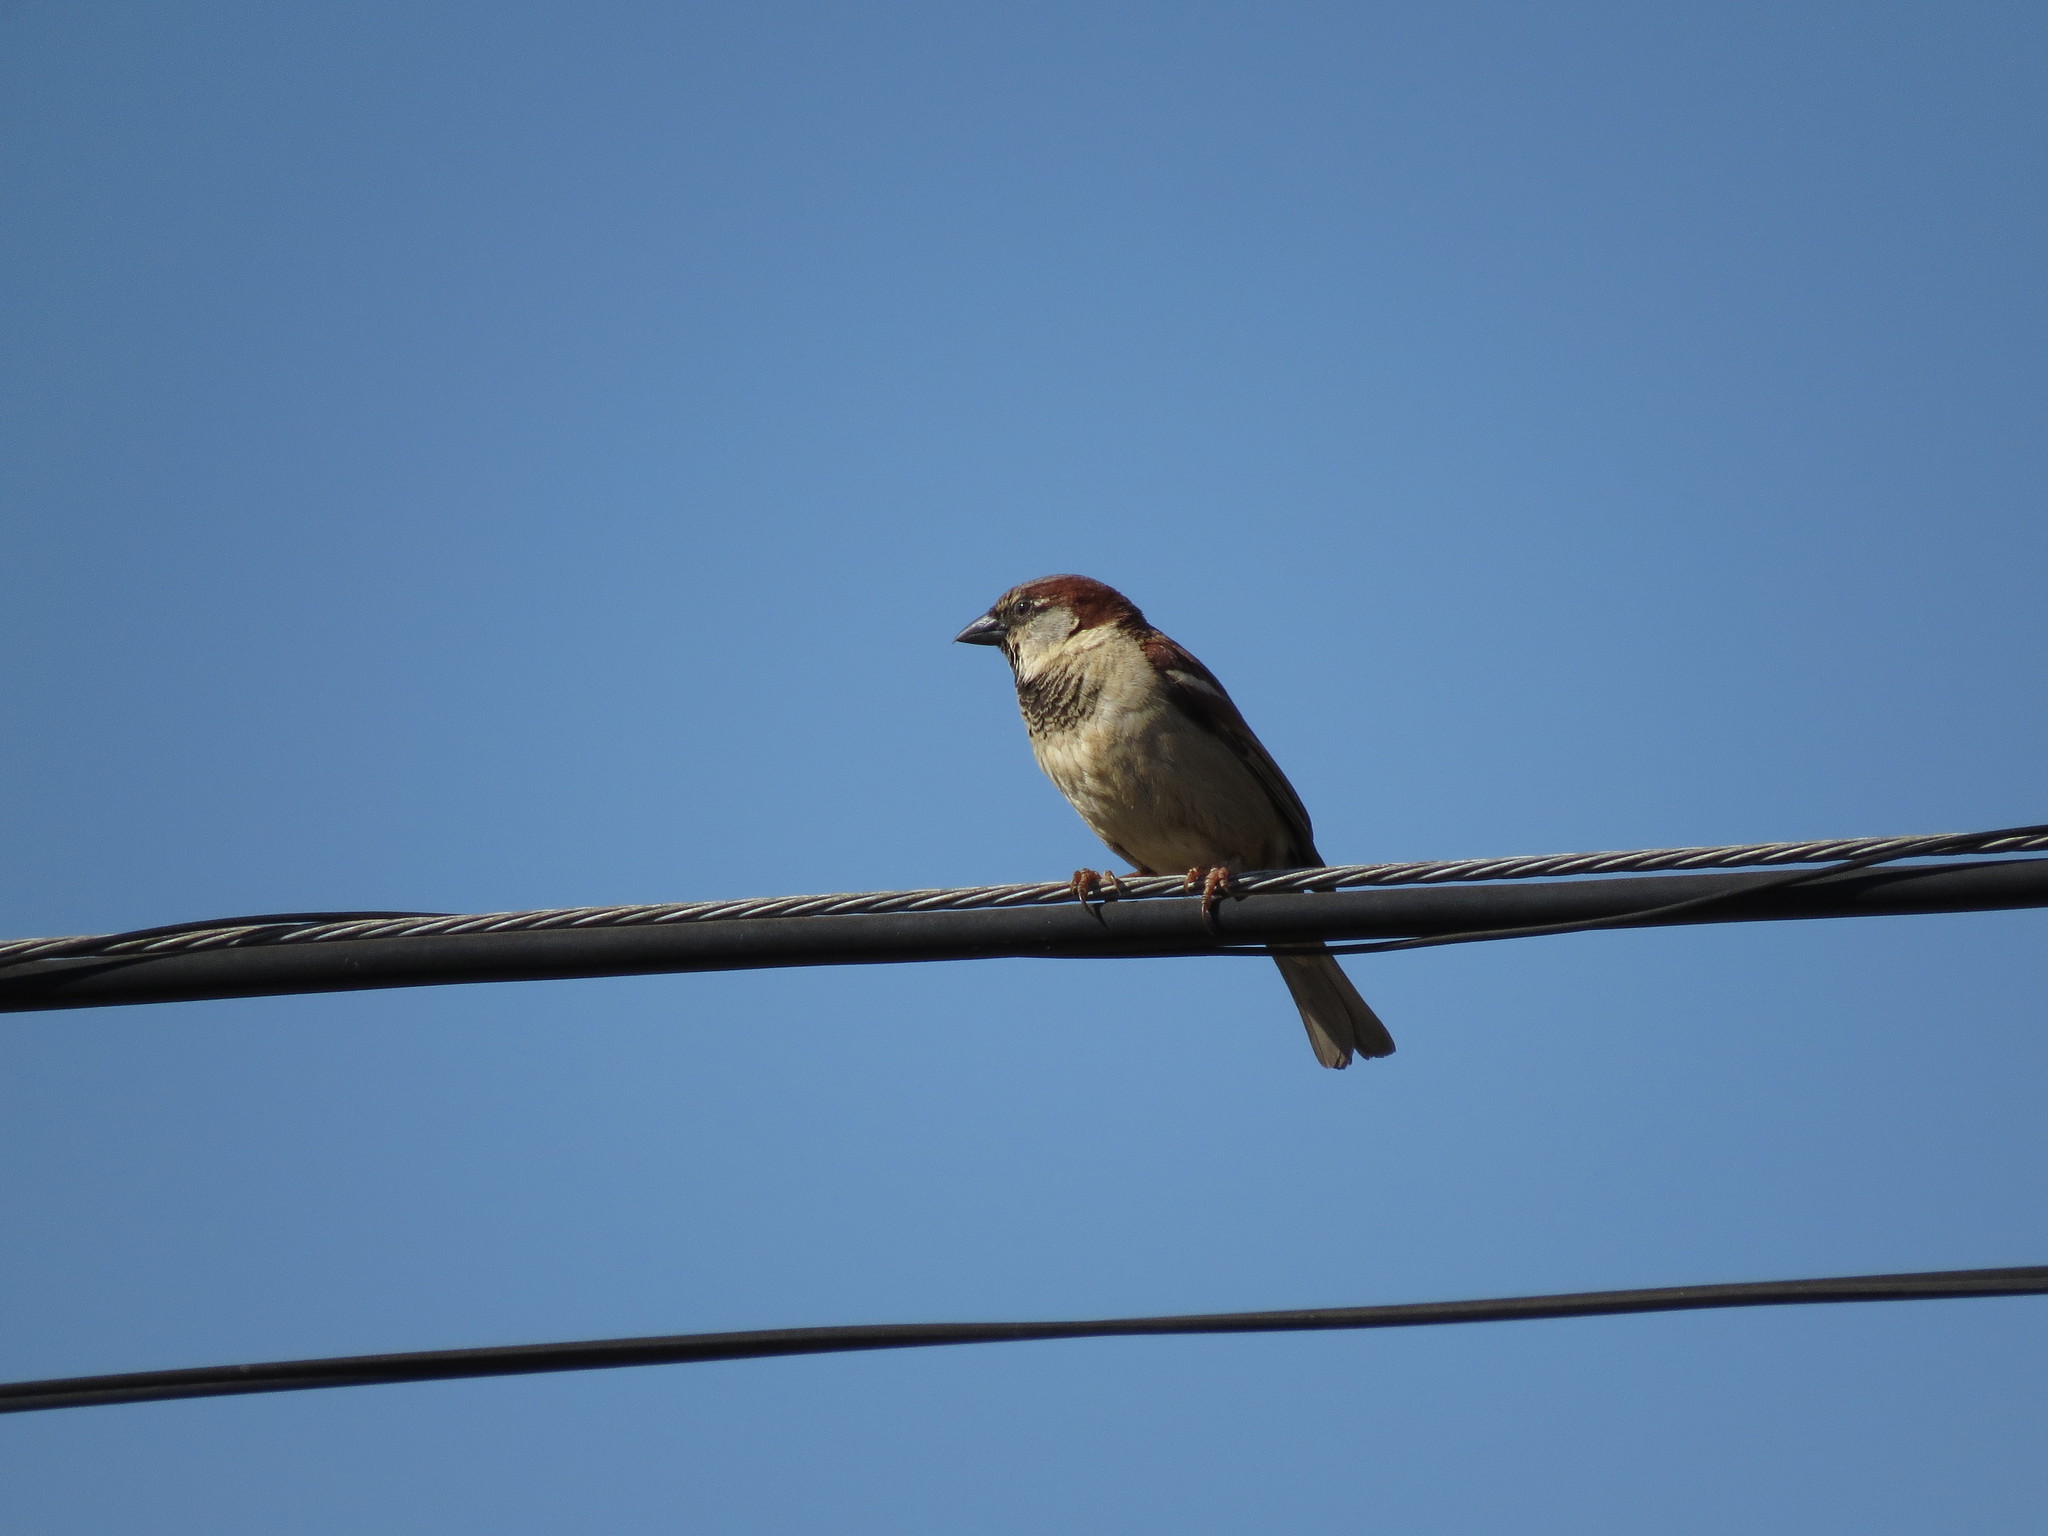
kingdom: Animalia
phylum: Chordata
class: Aves
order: Passeriformes
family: Passeridae
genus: Passer
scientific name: Passer domesticus
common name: House sparrow
